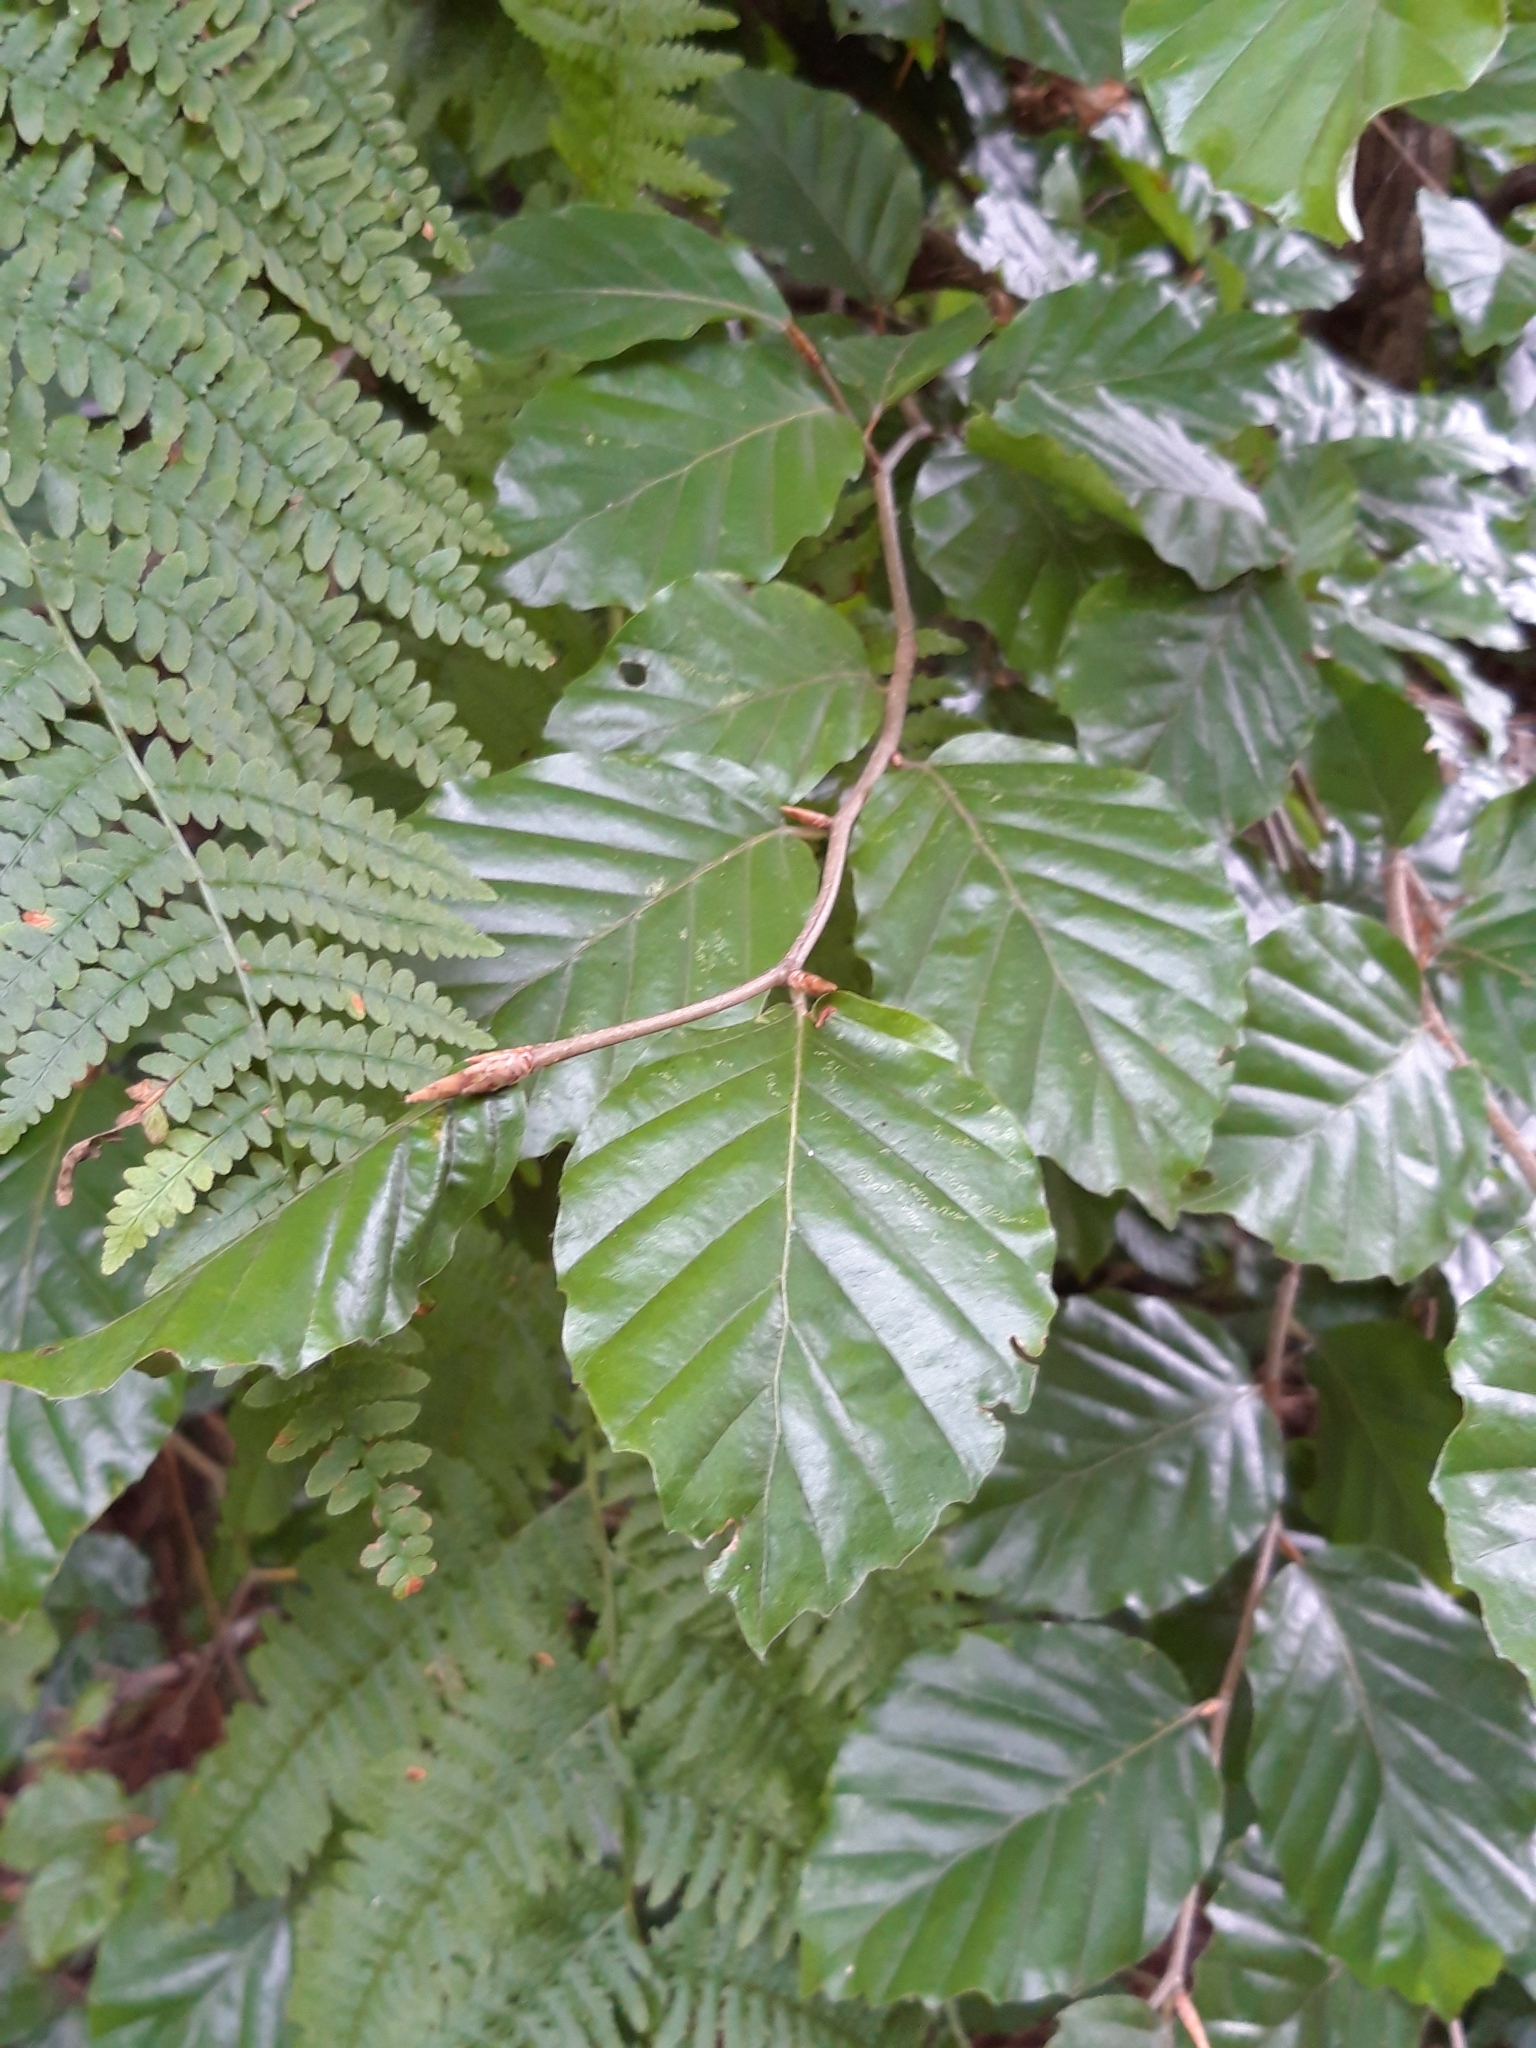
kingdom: Plantae
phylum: Tracheophyta
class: Magnoliopsida
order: Fagales
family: Fagaceae
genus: Fagus
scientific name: Fagus sylvatica
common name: Beech
